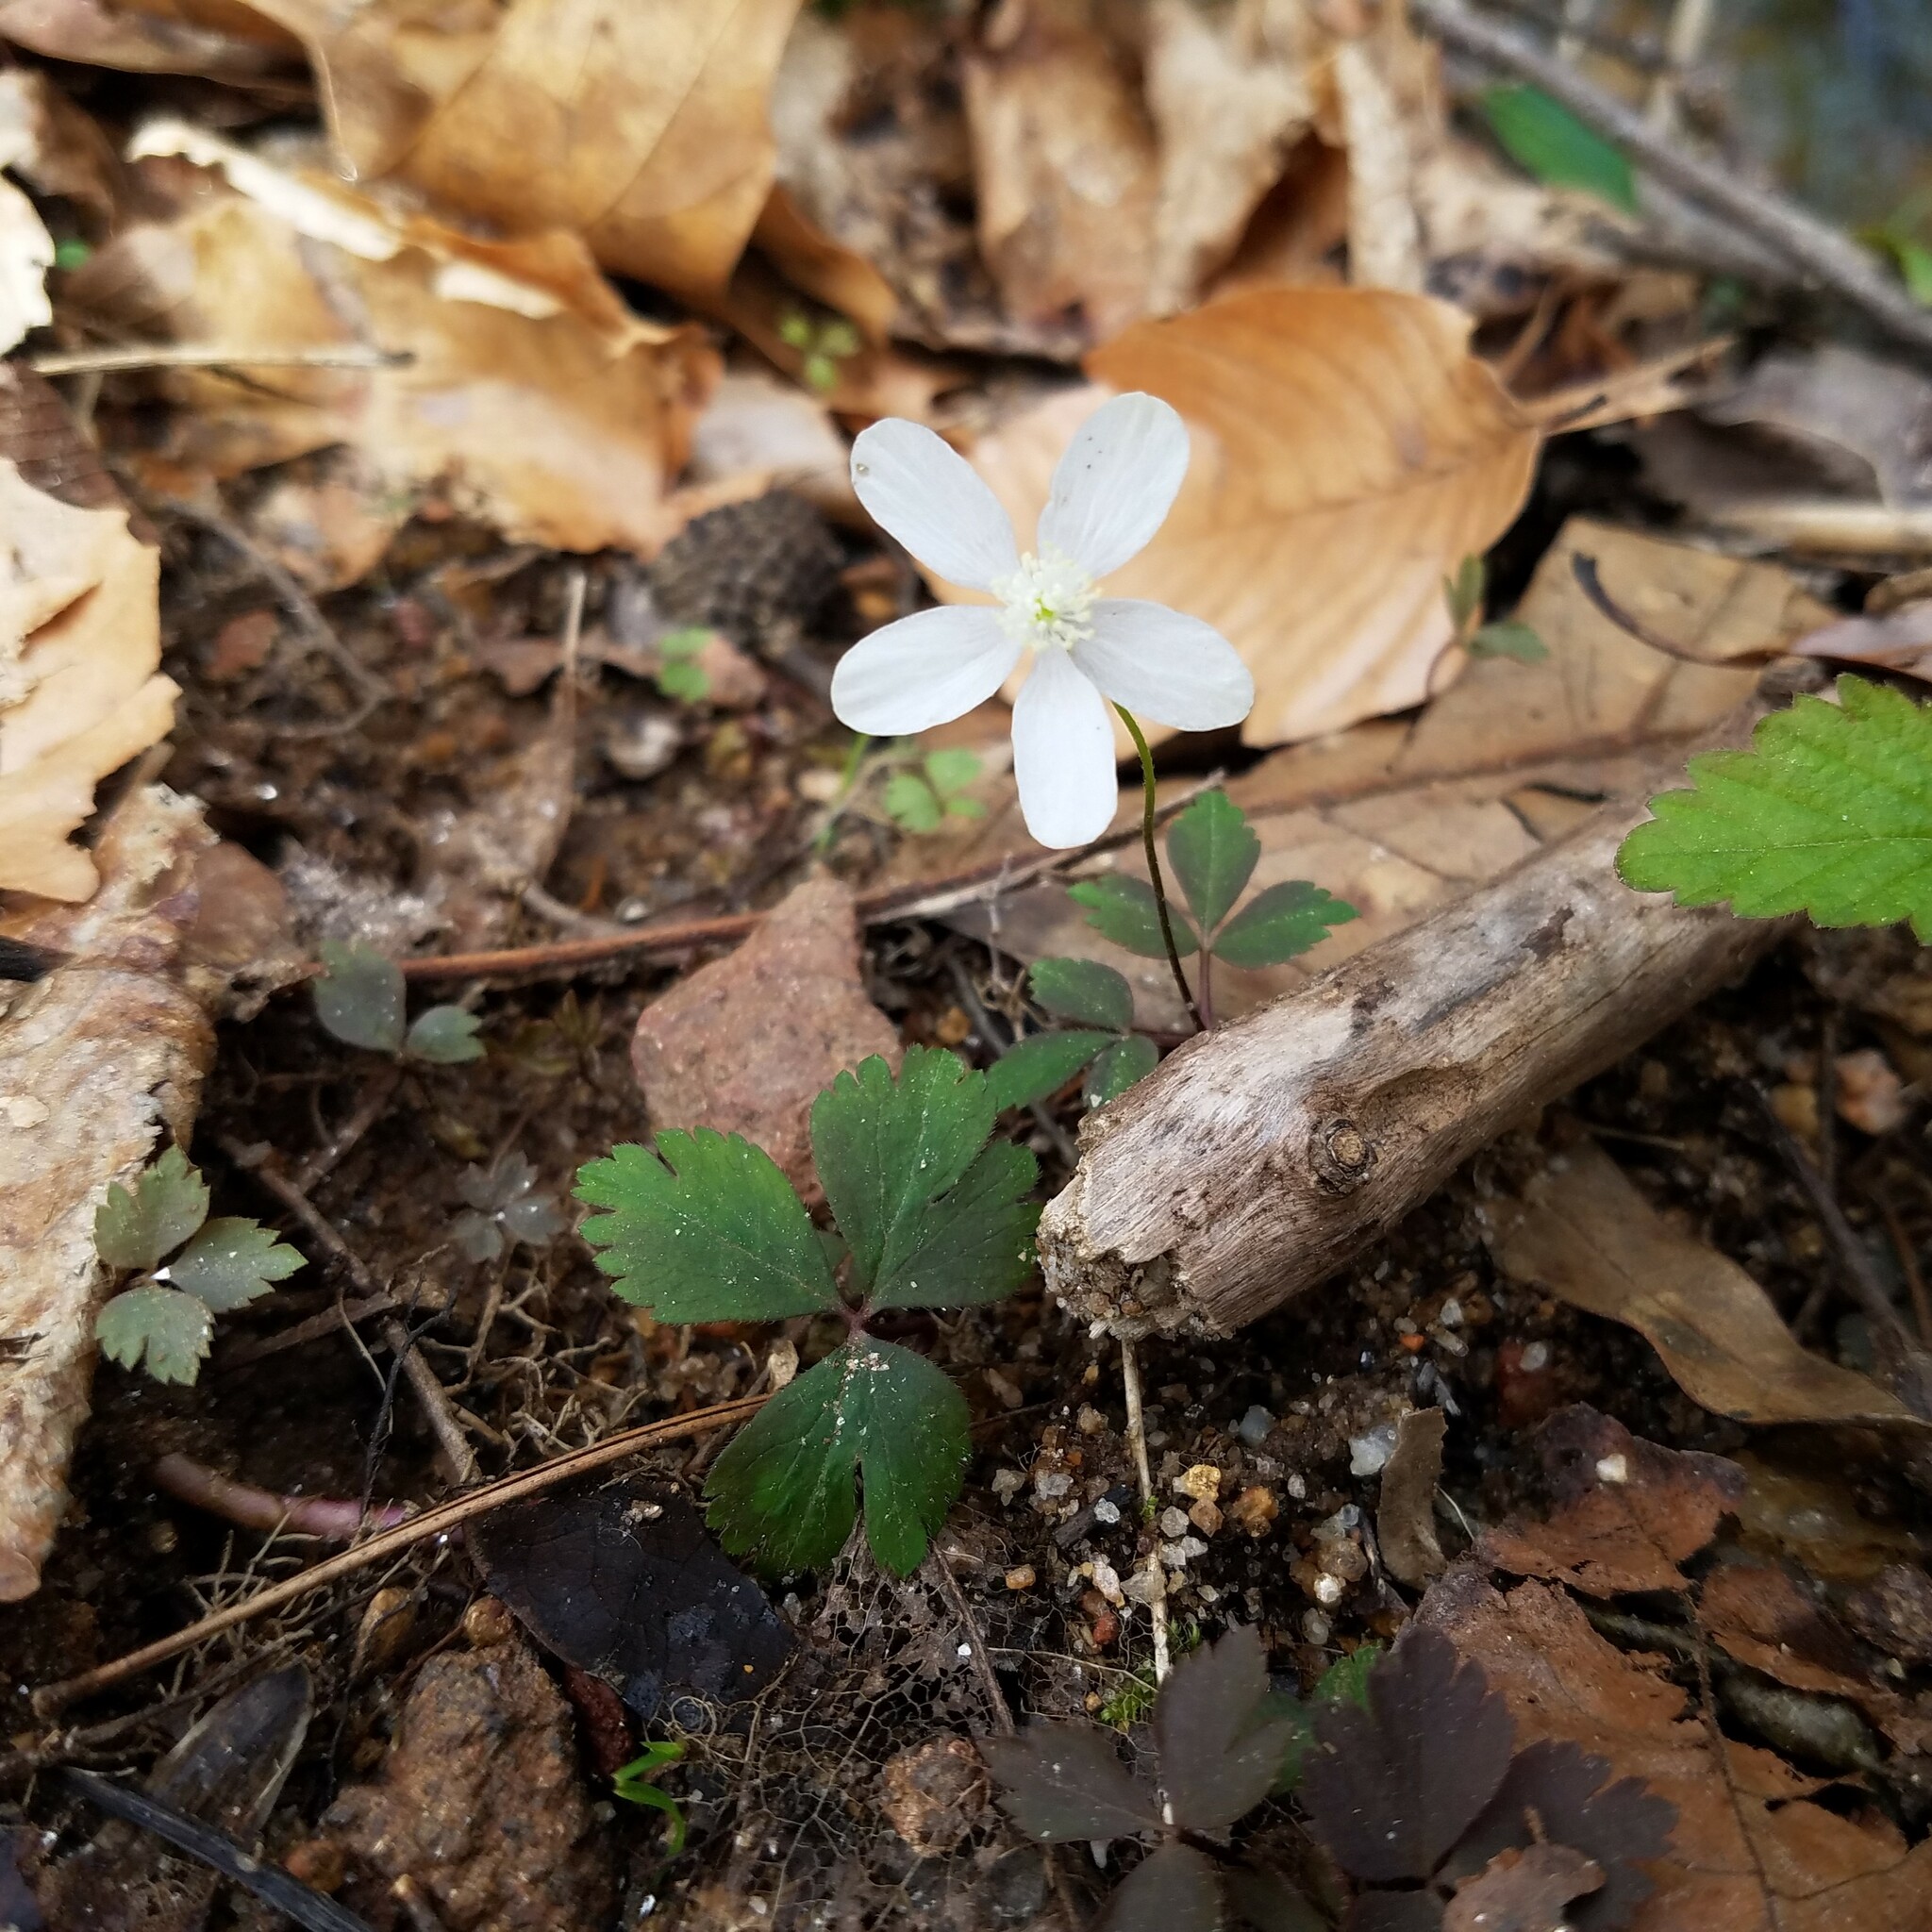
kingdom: Plantae
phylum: Tracheophyta
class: Magnoliopsida
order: Ranunculales
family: Ranunculaceae
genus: Anemone
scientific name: Anemone quinquefolia
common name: Wood anemone
